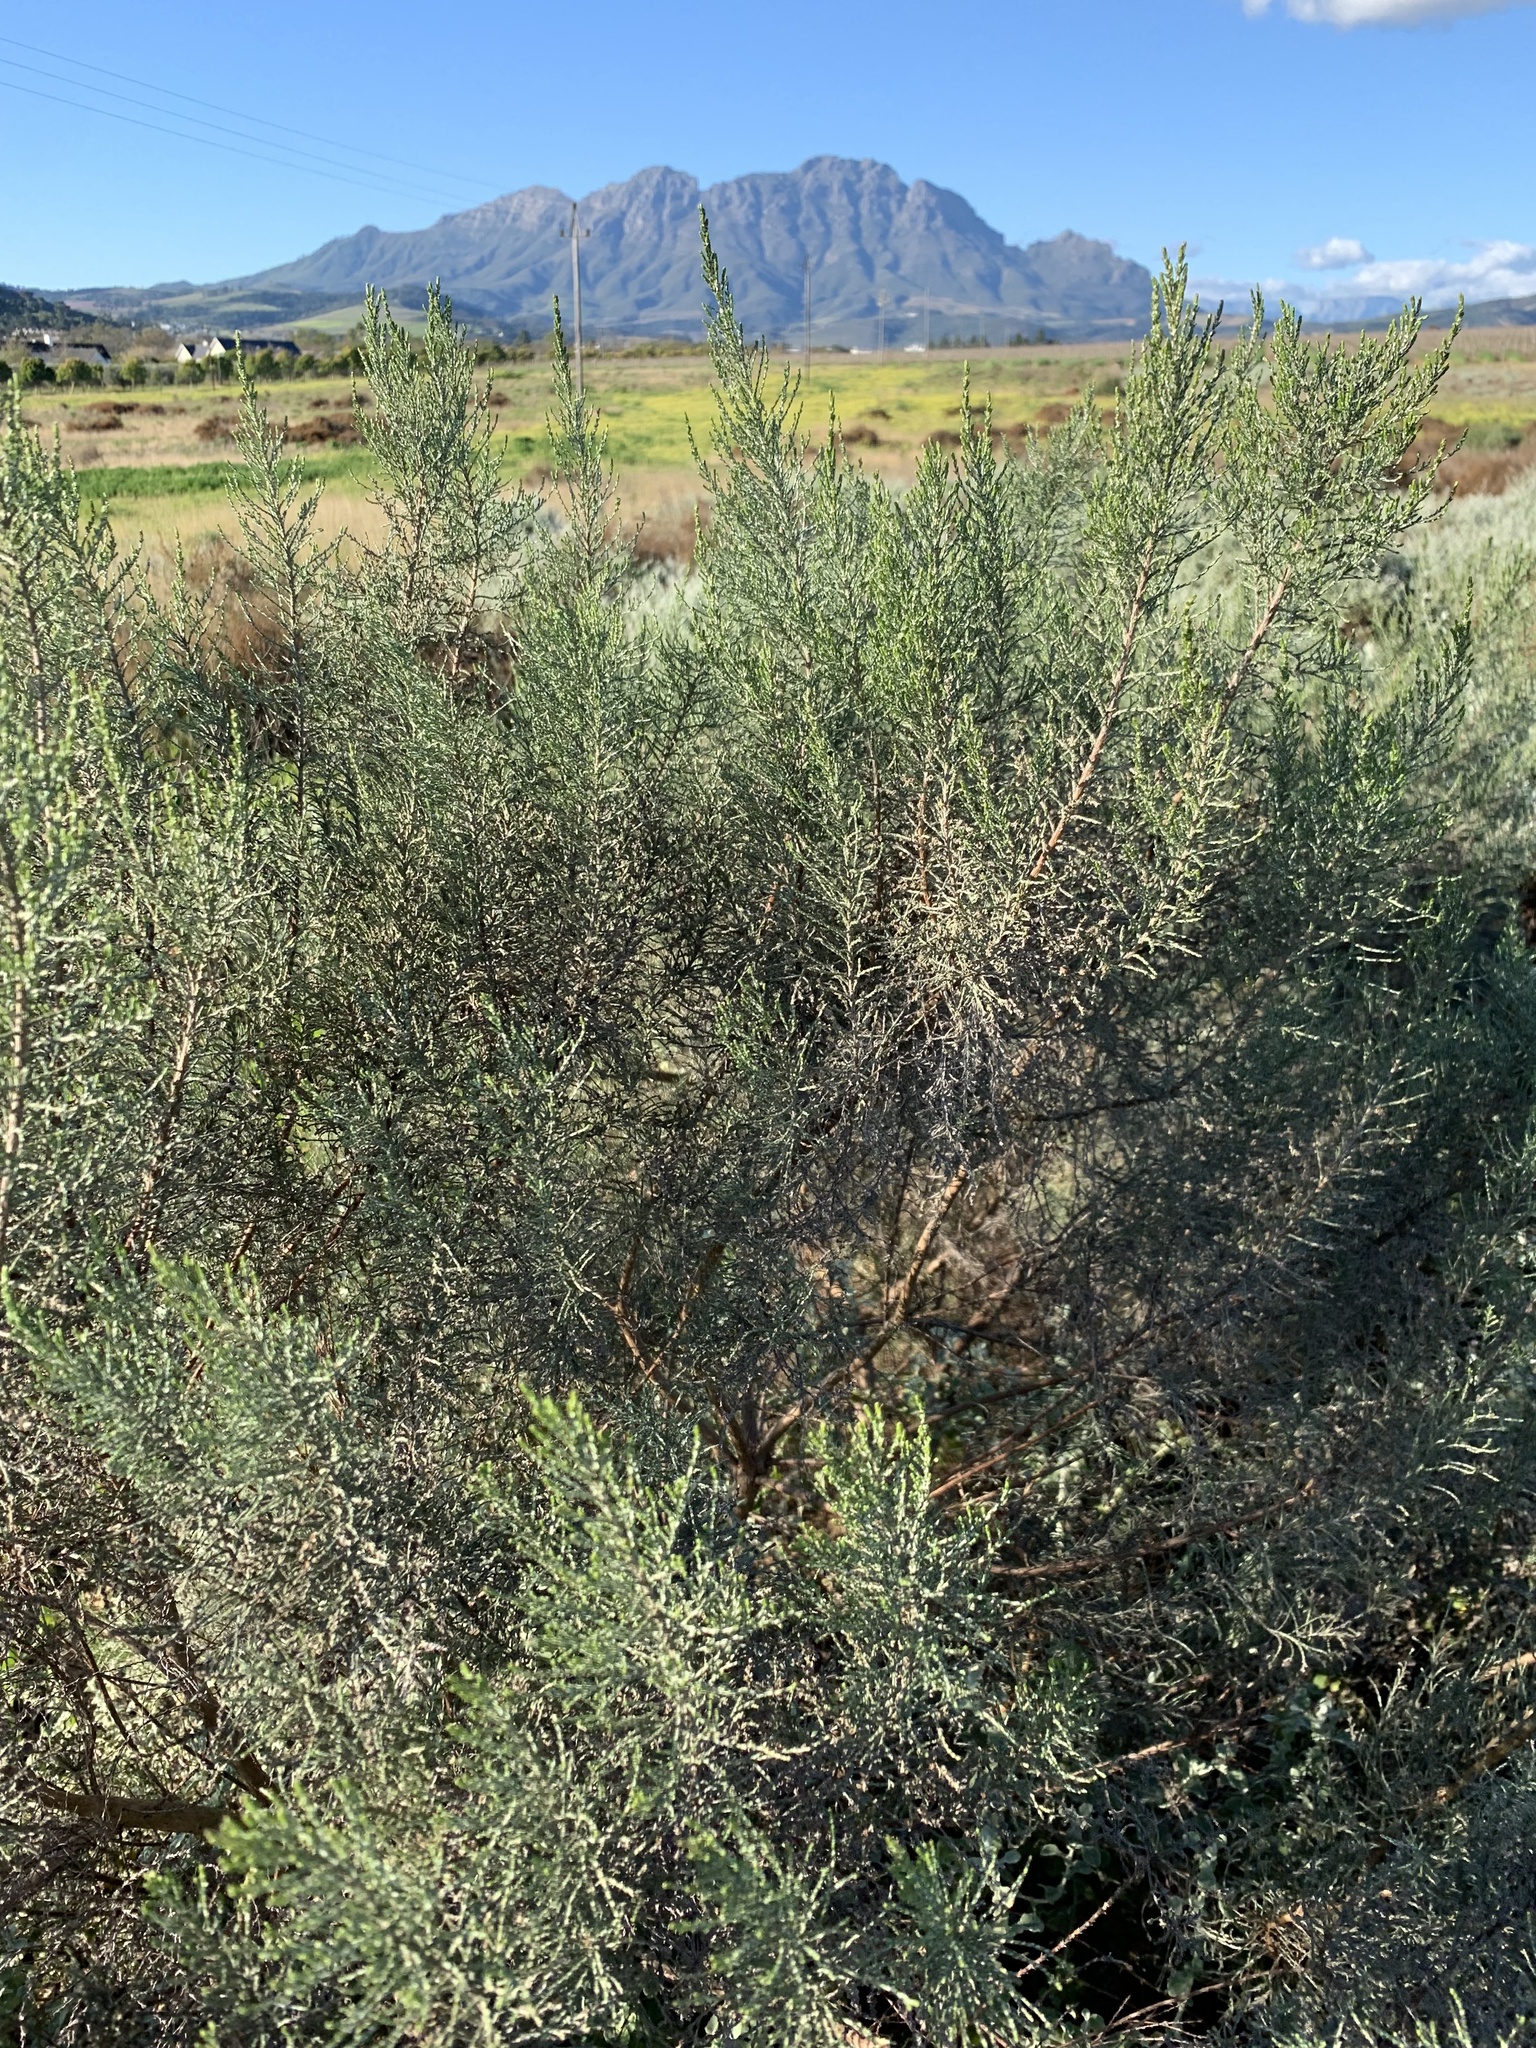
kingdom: Plantae
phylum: Tracheophyta
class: Magnoliopsida
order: Asterales
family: Asteraceae
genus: Dicerothamnus
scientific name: Dicerothamnus rhinocerotis
